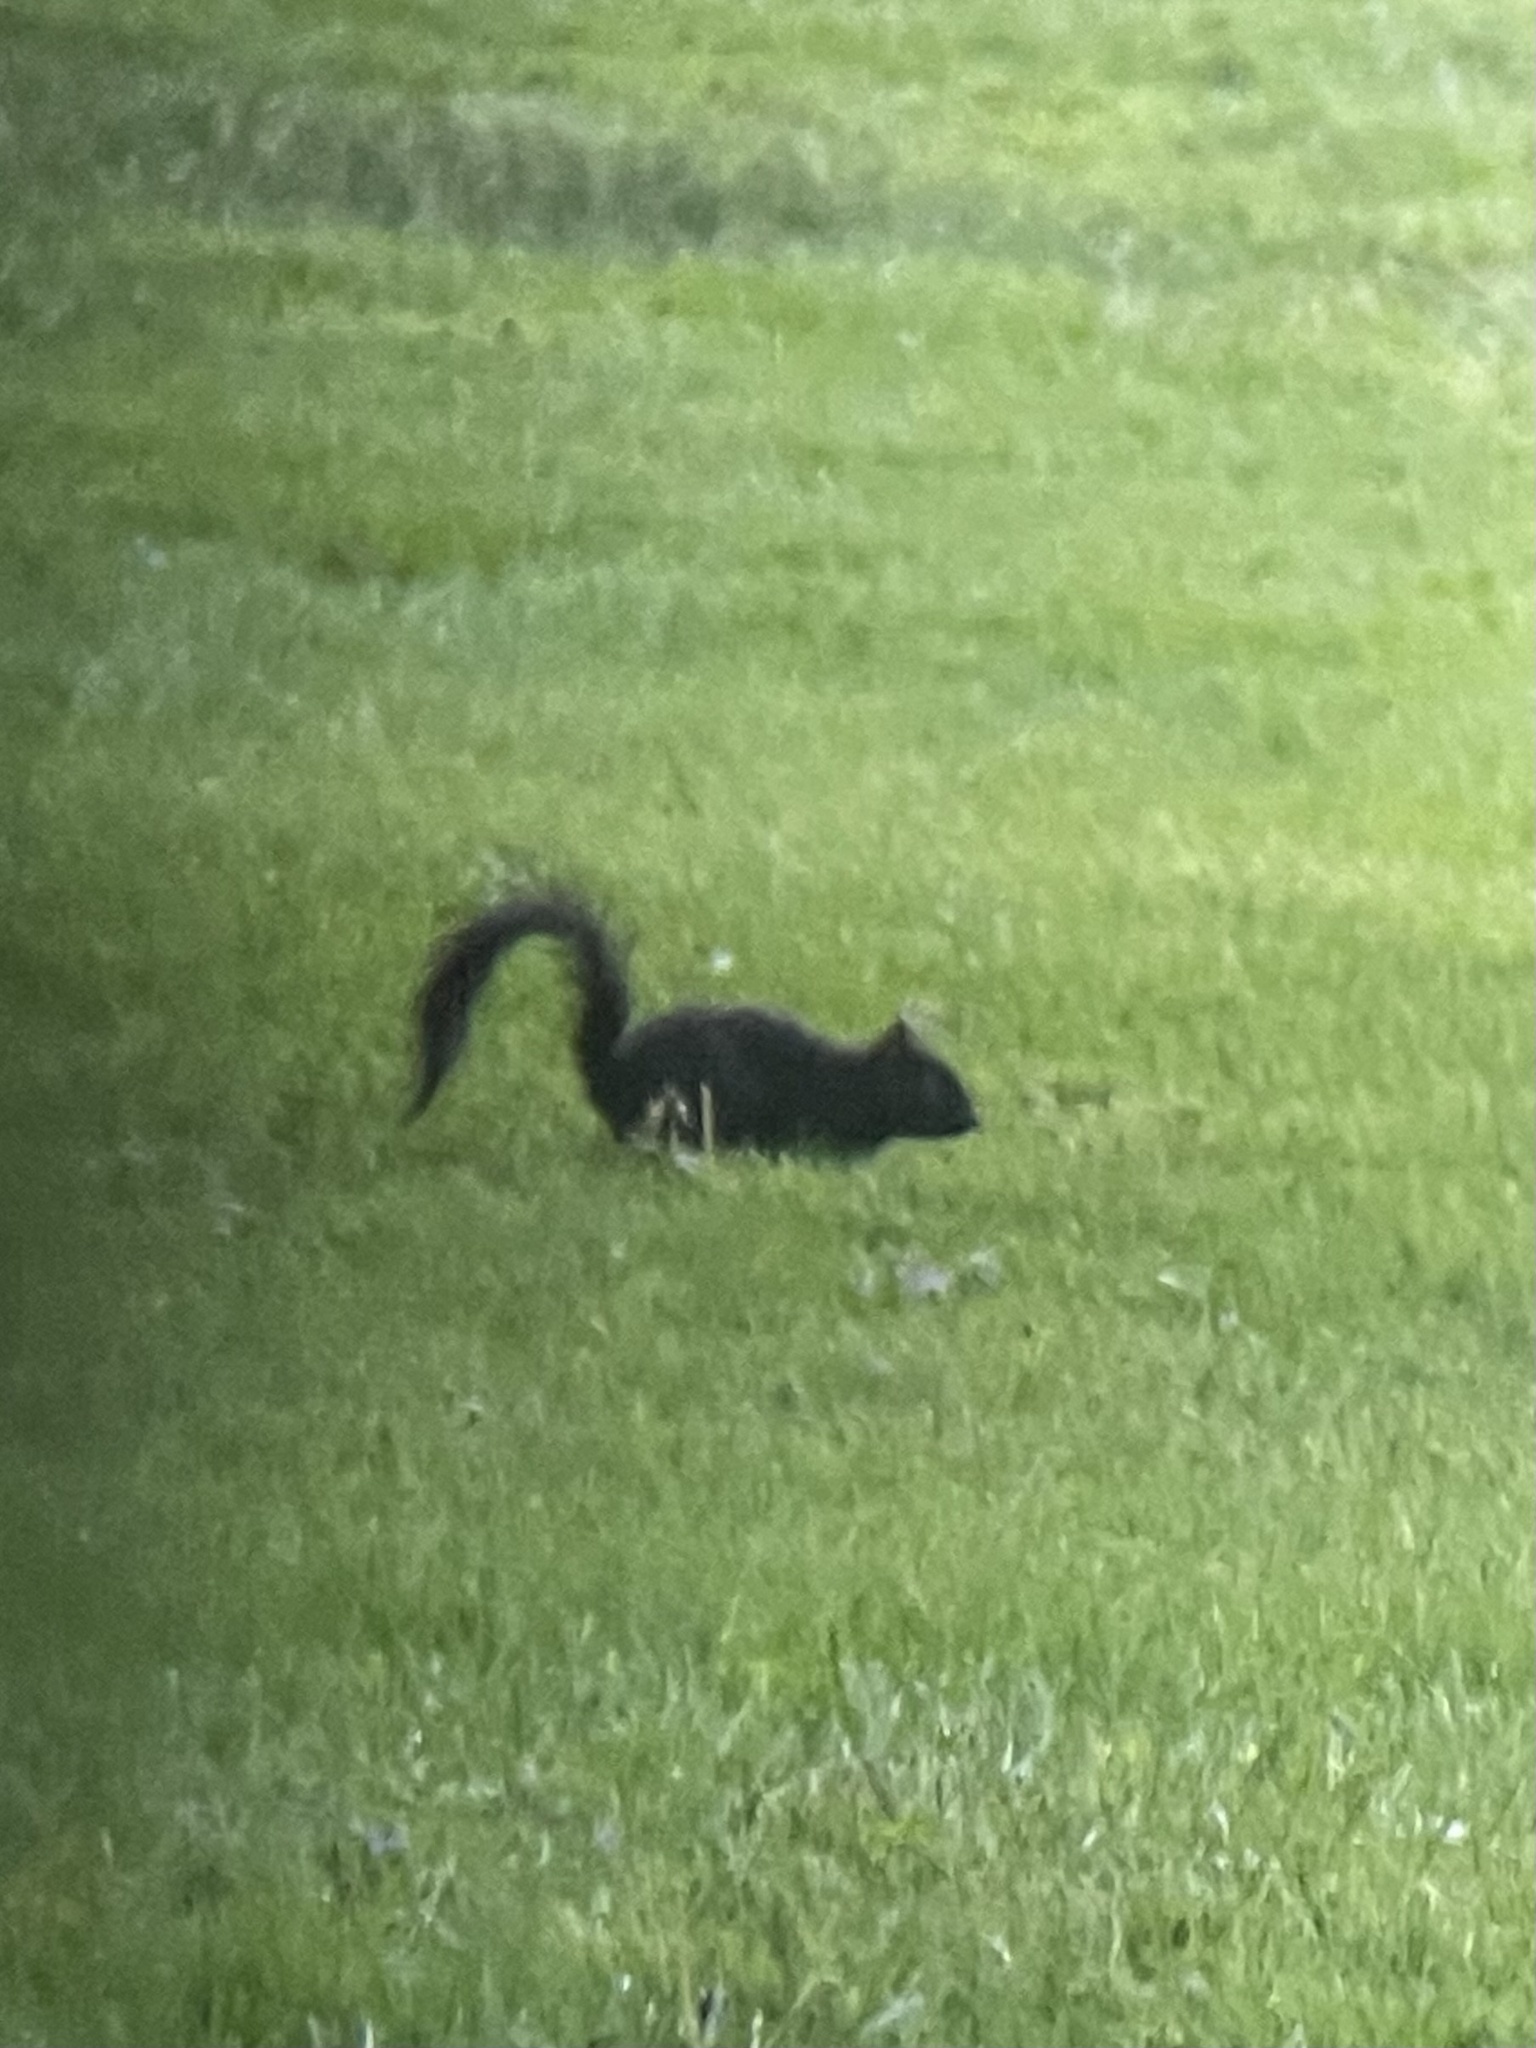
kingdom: Animalia
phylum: Chordata
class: Mammalia
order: Rodentia
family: Sciuridae
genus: Sciurus
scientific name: Sciurus carolinensis
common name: Eastern gray squirrel
